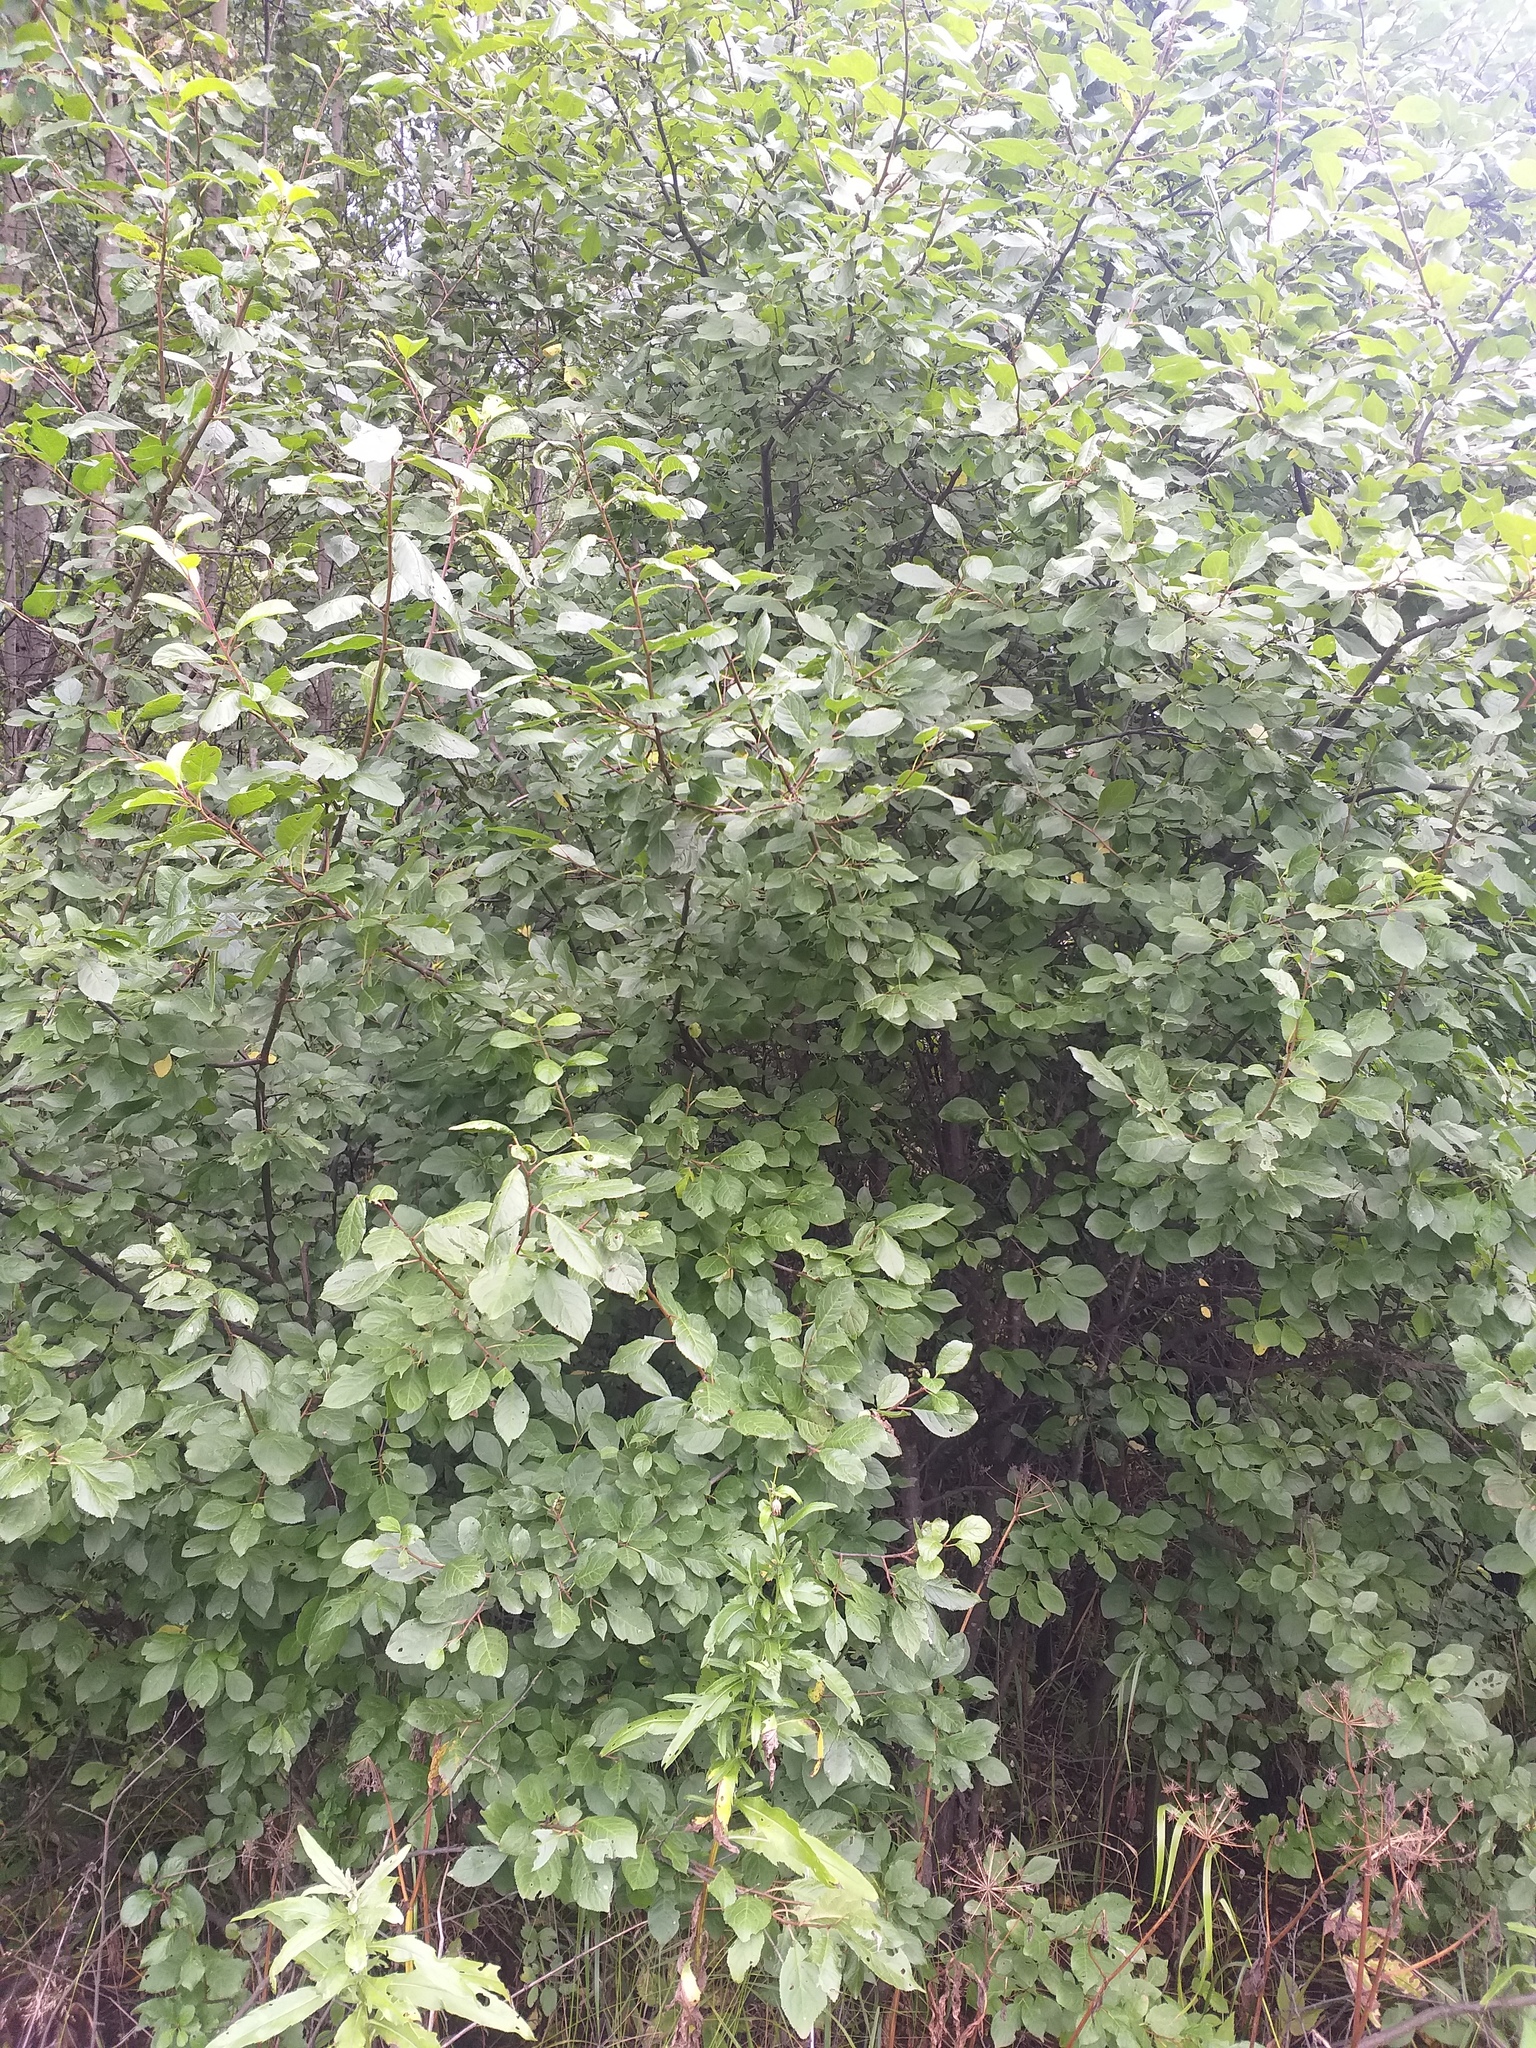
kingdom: Plantae
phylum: Tracheophyta
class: Magnoliopsida
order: Rosales
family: Rosaceae
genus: Prunus
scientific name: Prunus domestica
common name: Wild plum
